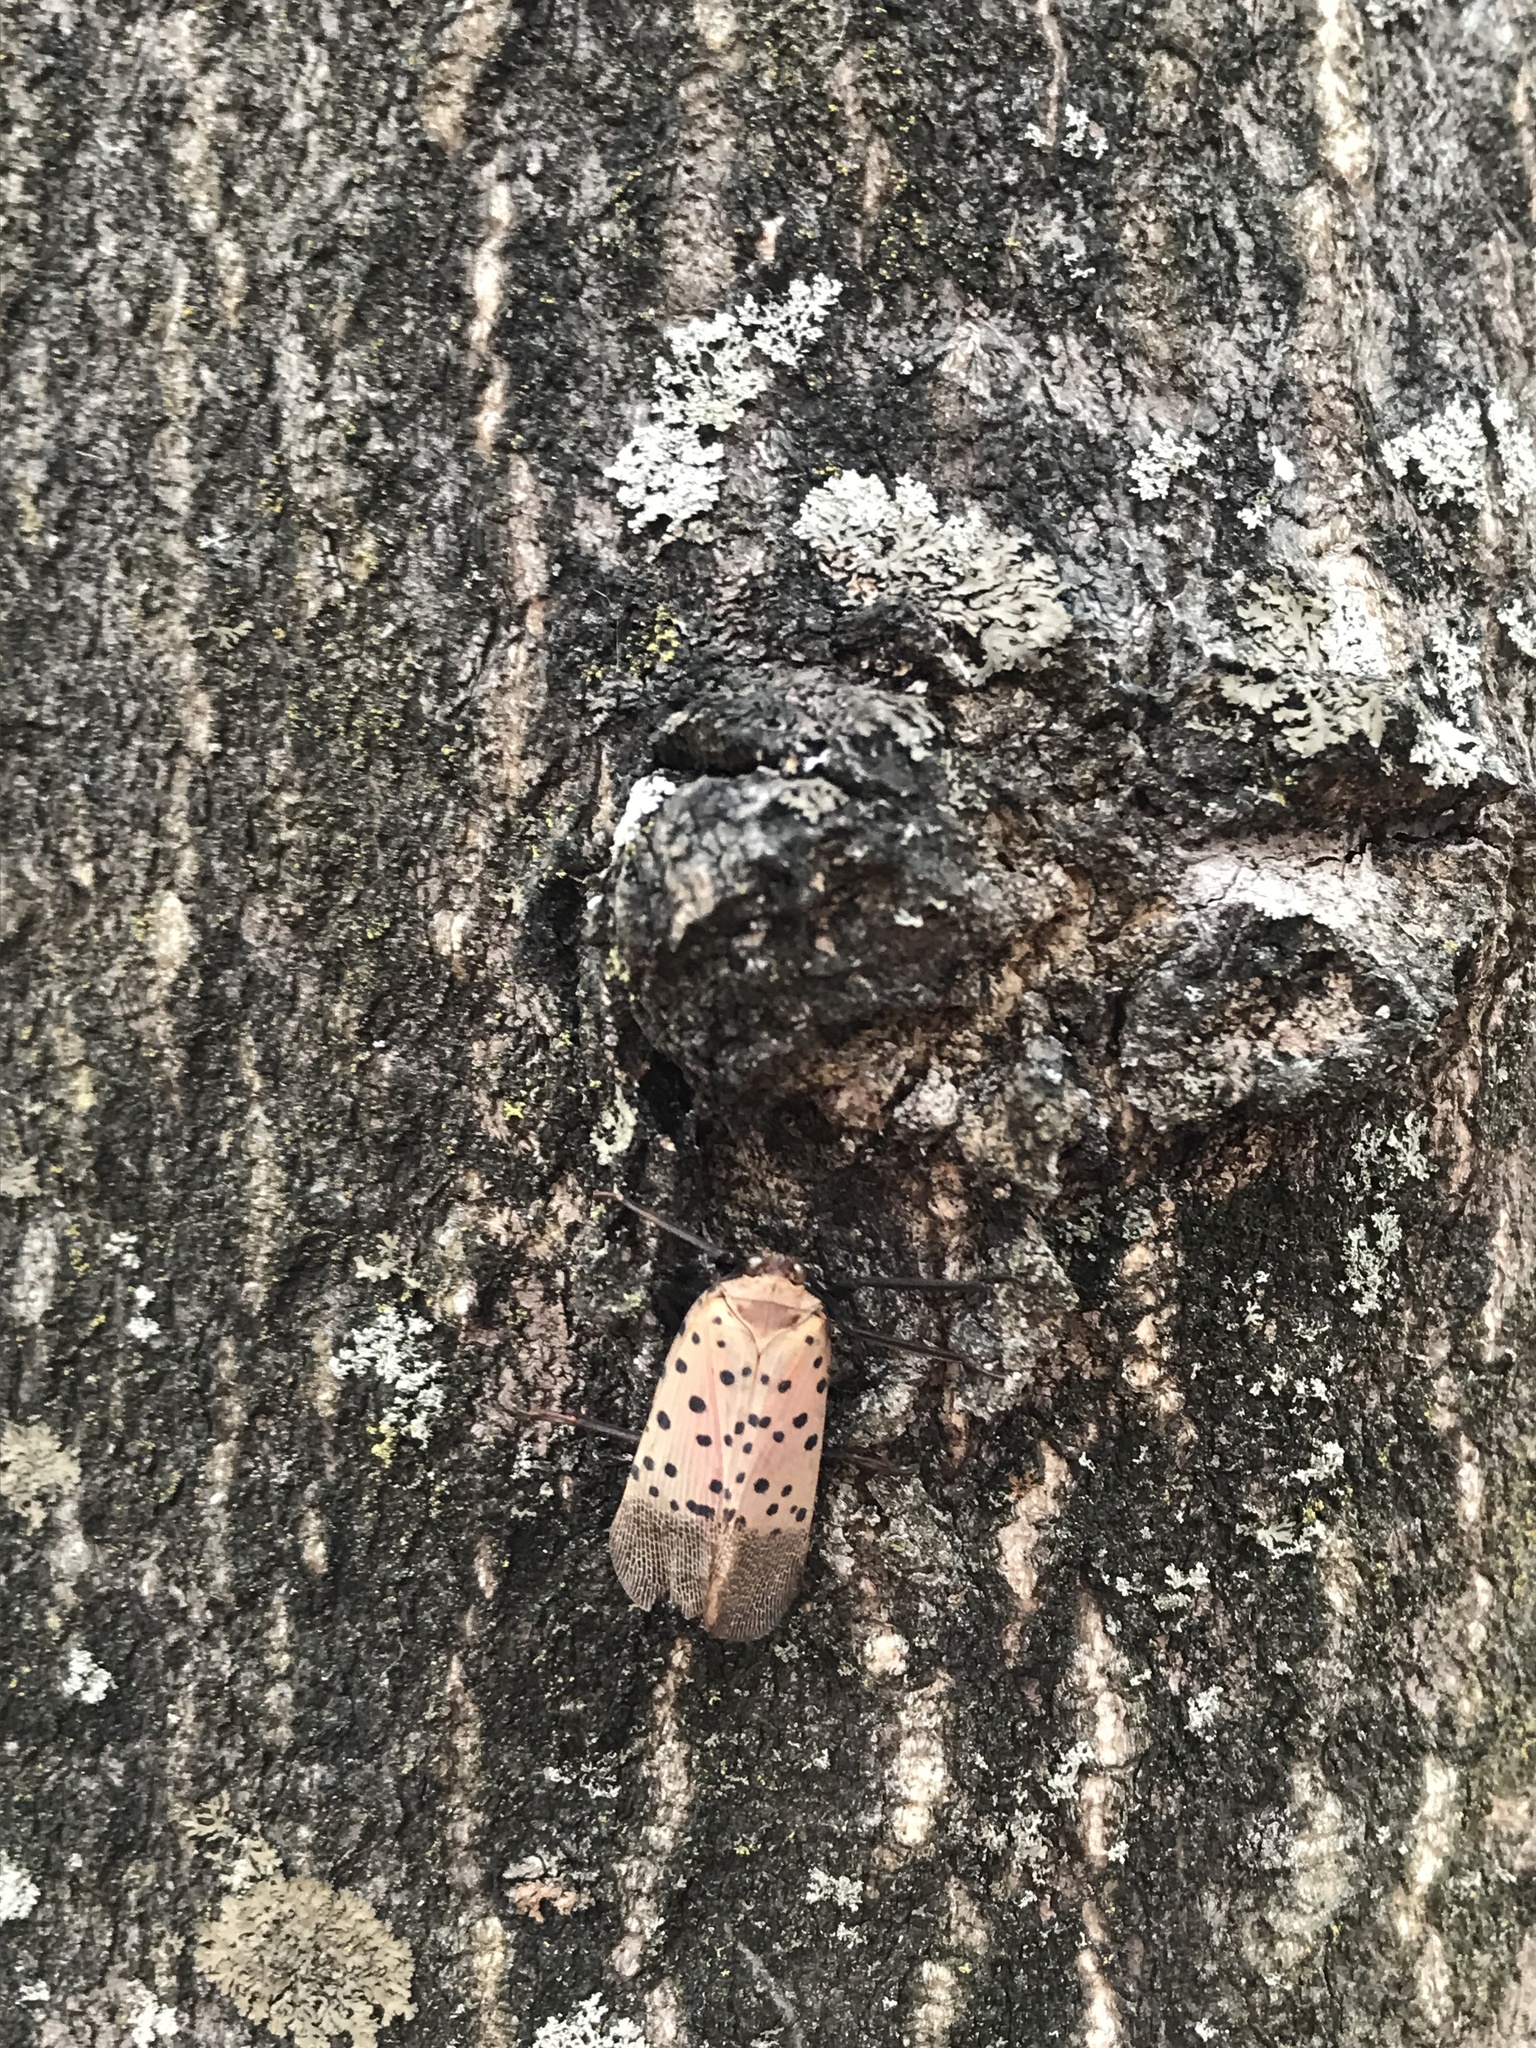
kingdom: Animalia
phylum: Arthropoda
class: Insecta
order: Hemiptera
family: Fulgoridae
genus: Lycorma
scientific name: Lycorma delicatula
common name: Spotted lanternfly
